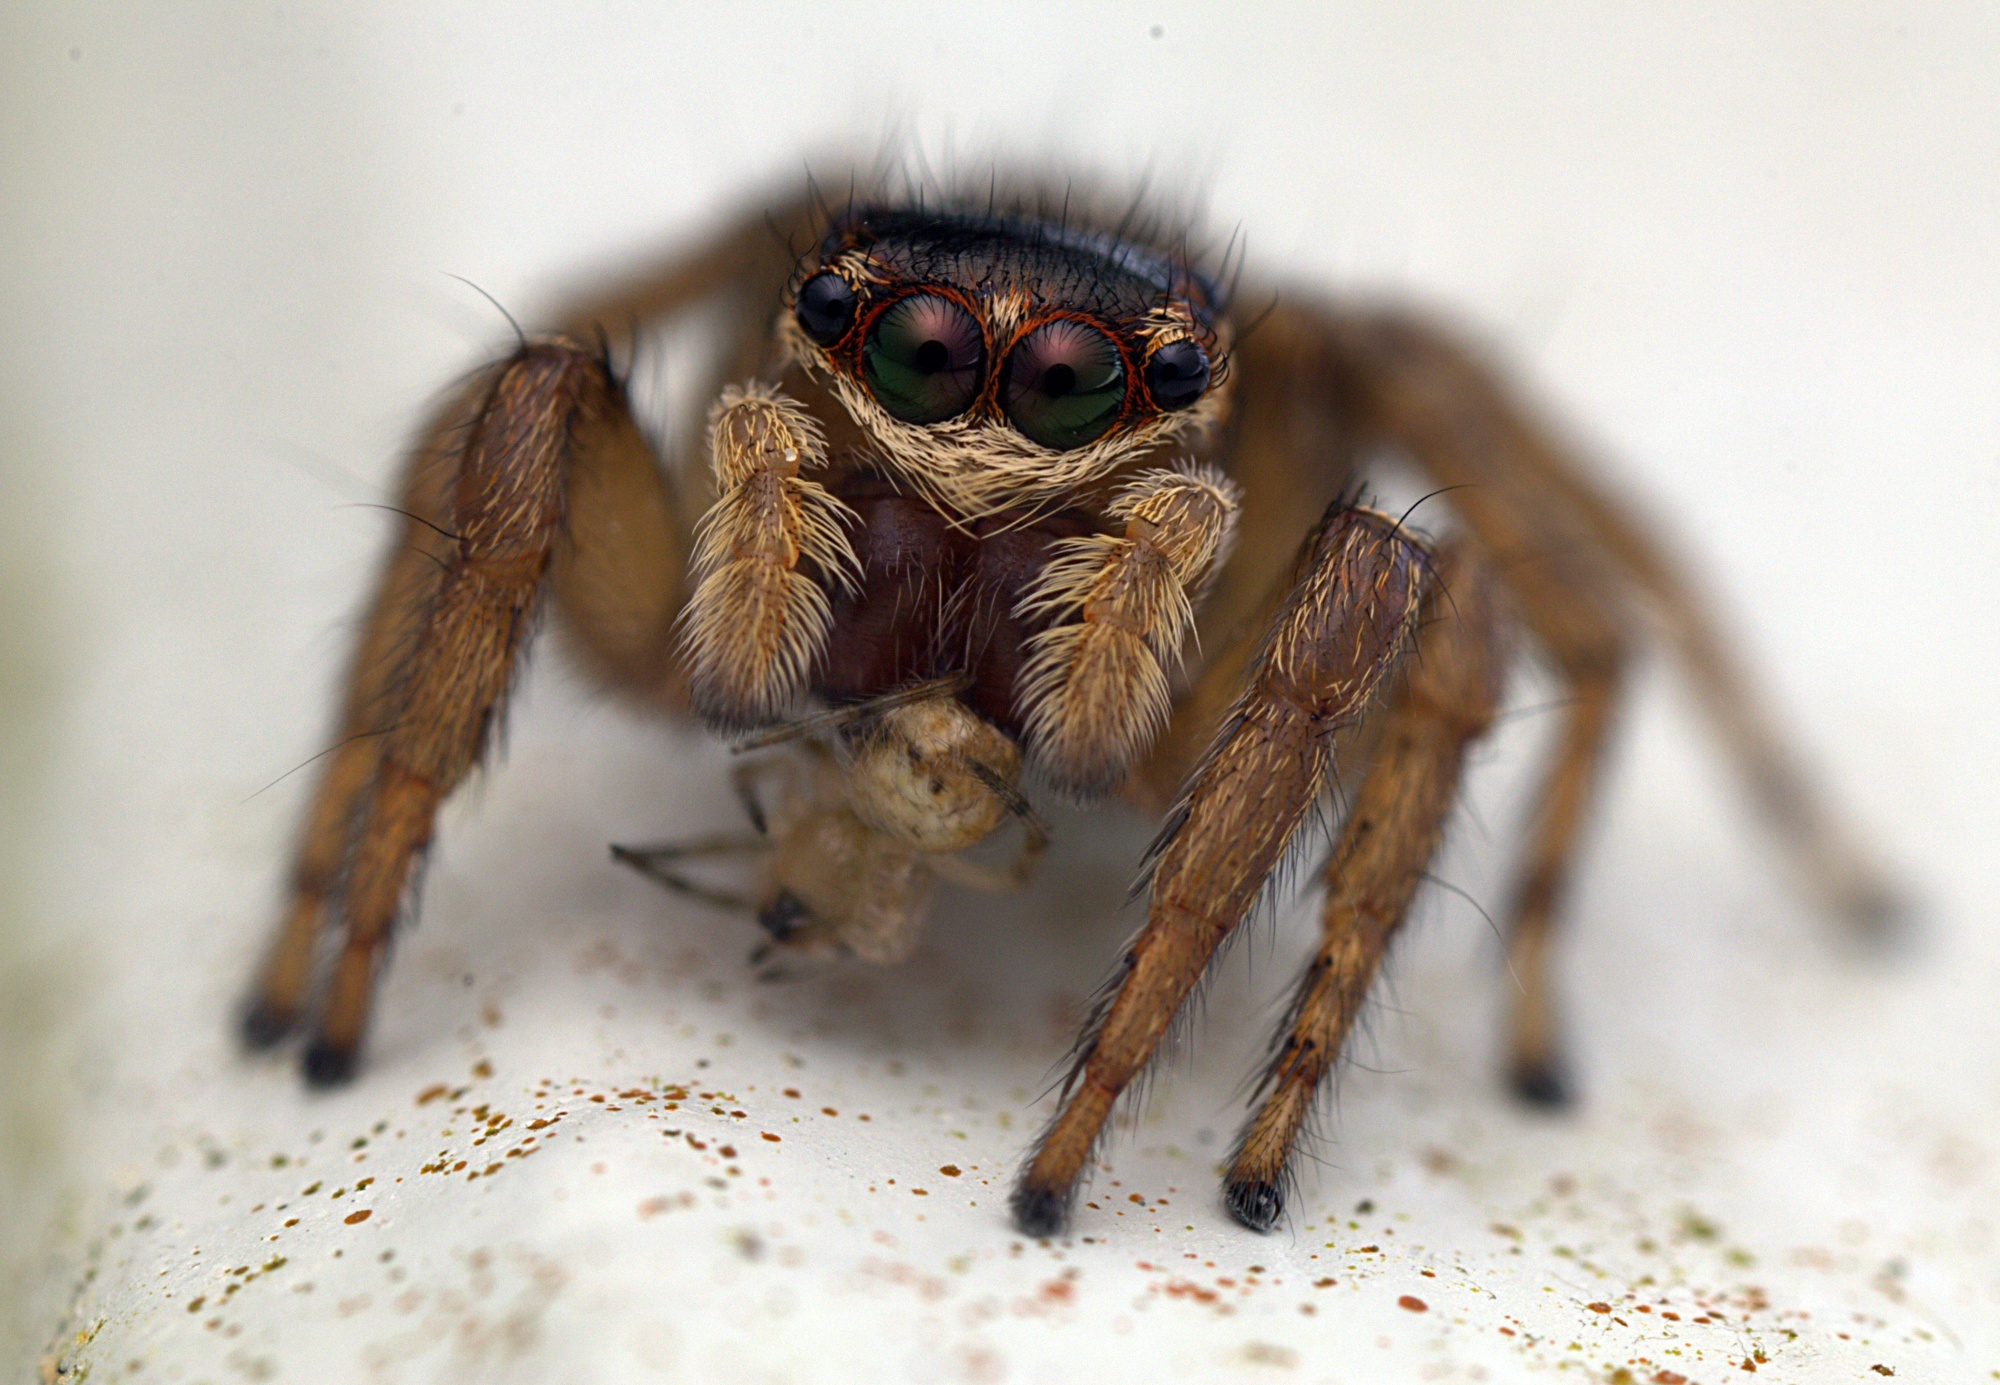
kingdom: Animalia
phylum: Arthropoda
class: Arachnida
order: Araneae
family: Salticidae
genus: Maratus
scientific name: Maratus griseus
